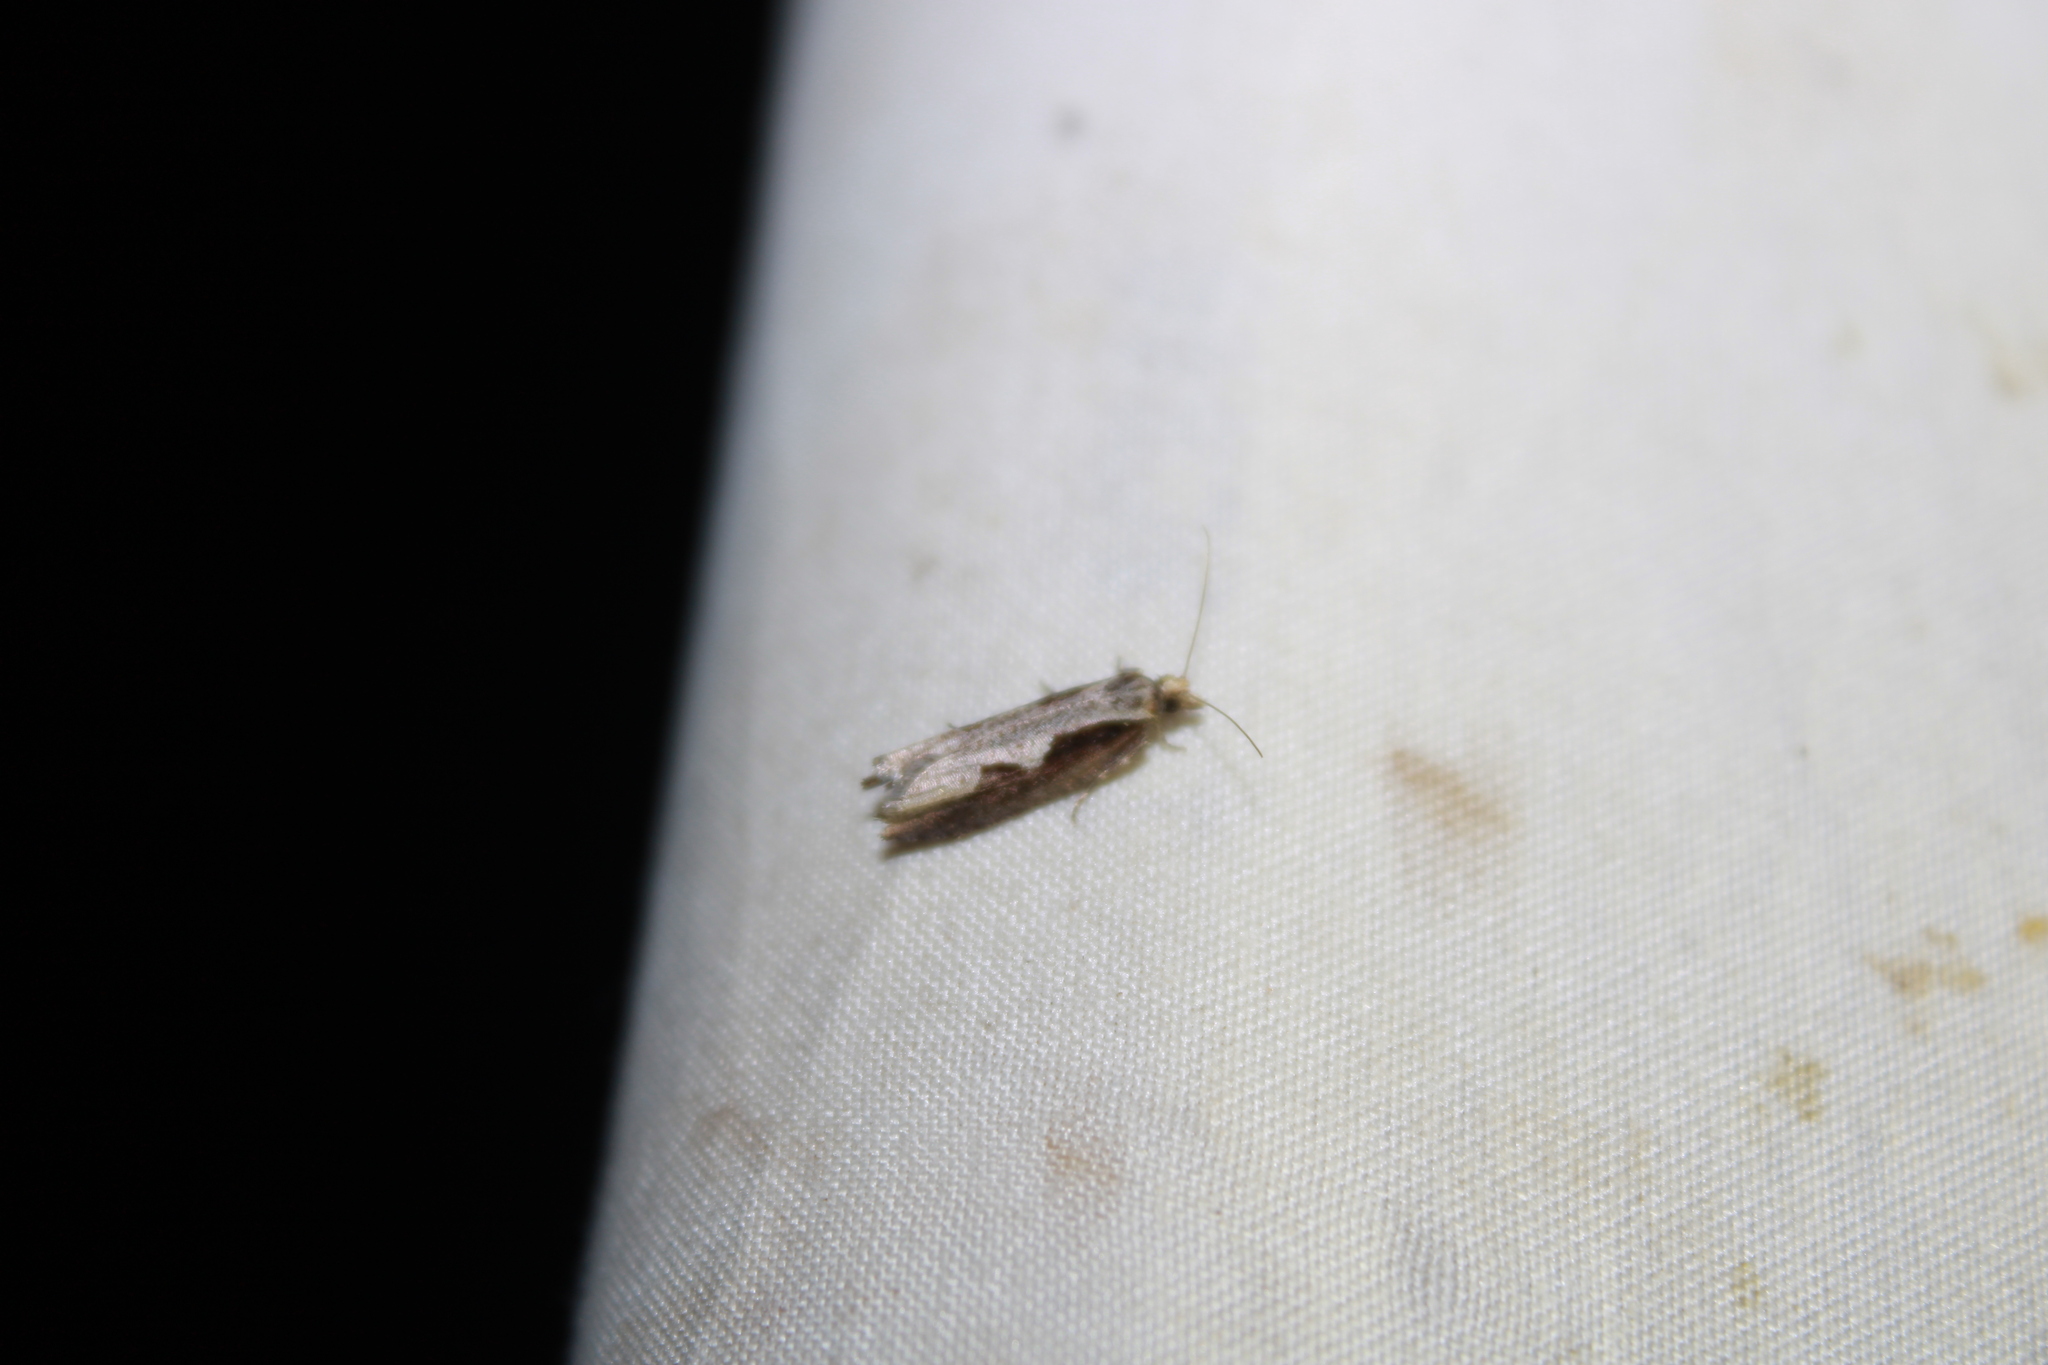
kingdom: Animalia
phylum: Arthropoda
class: Insecta
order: Lepidoptera
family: Tortricidae
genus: Epinotia
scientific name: Epinotia lindana
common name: Diamondback epinotia moth
